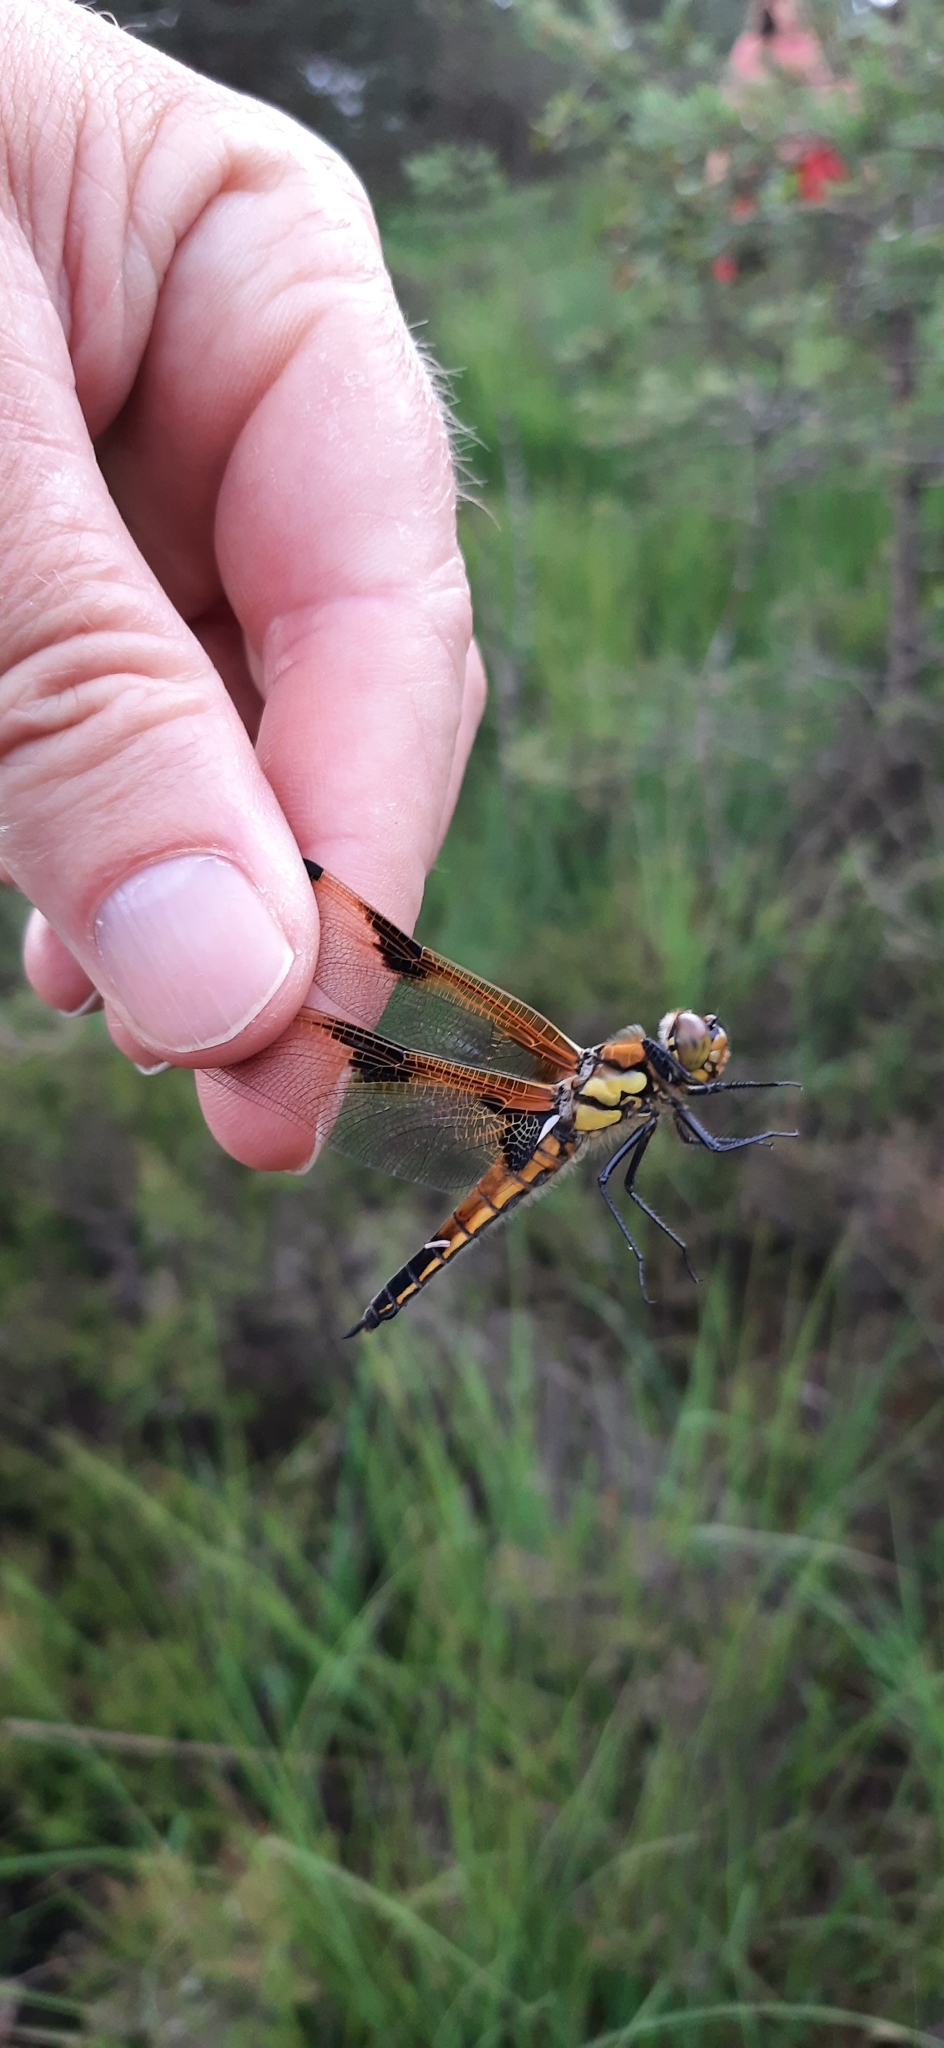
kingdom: Animalia
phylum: Arthropoda
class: Insecta
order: Odonata
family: Libellulidae
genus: Libellula
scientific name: Libellula quadrimaculata
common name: Four-spotted chaser
